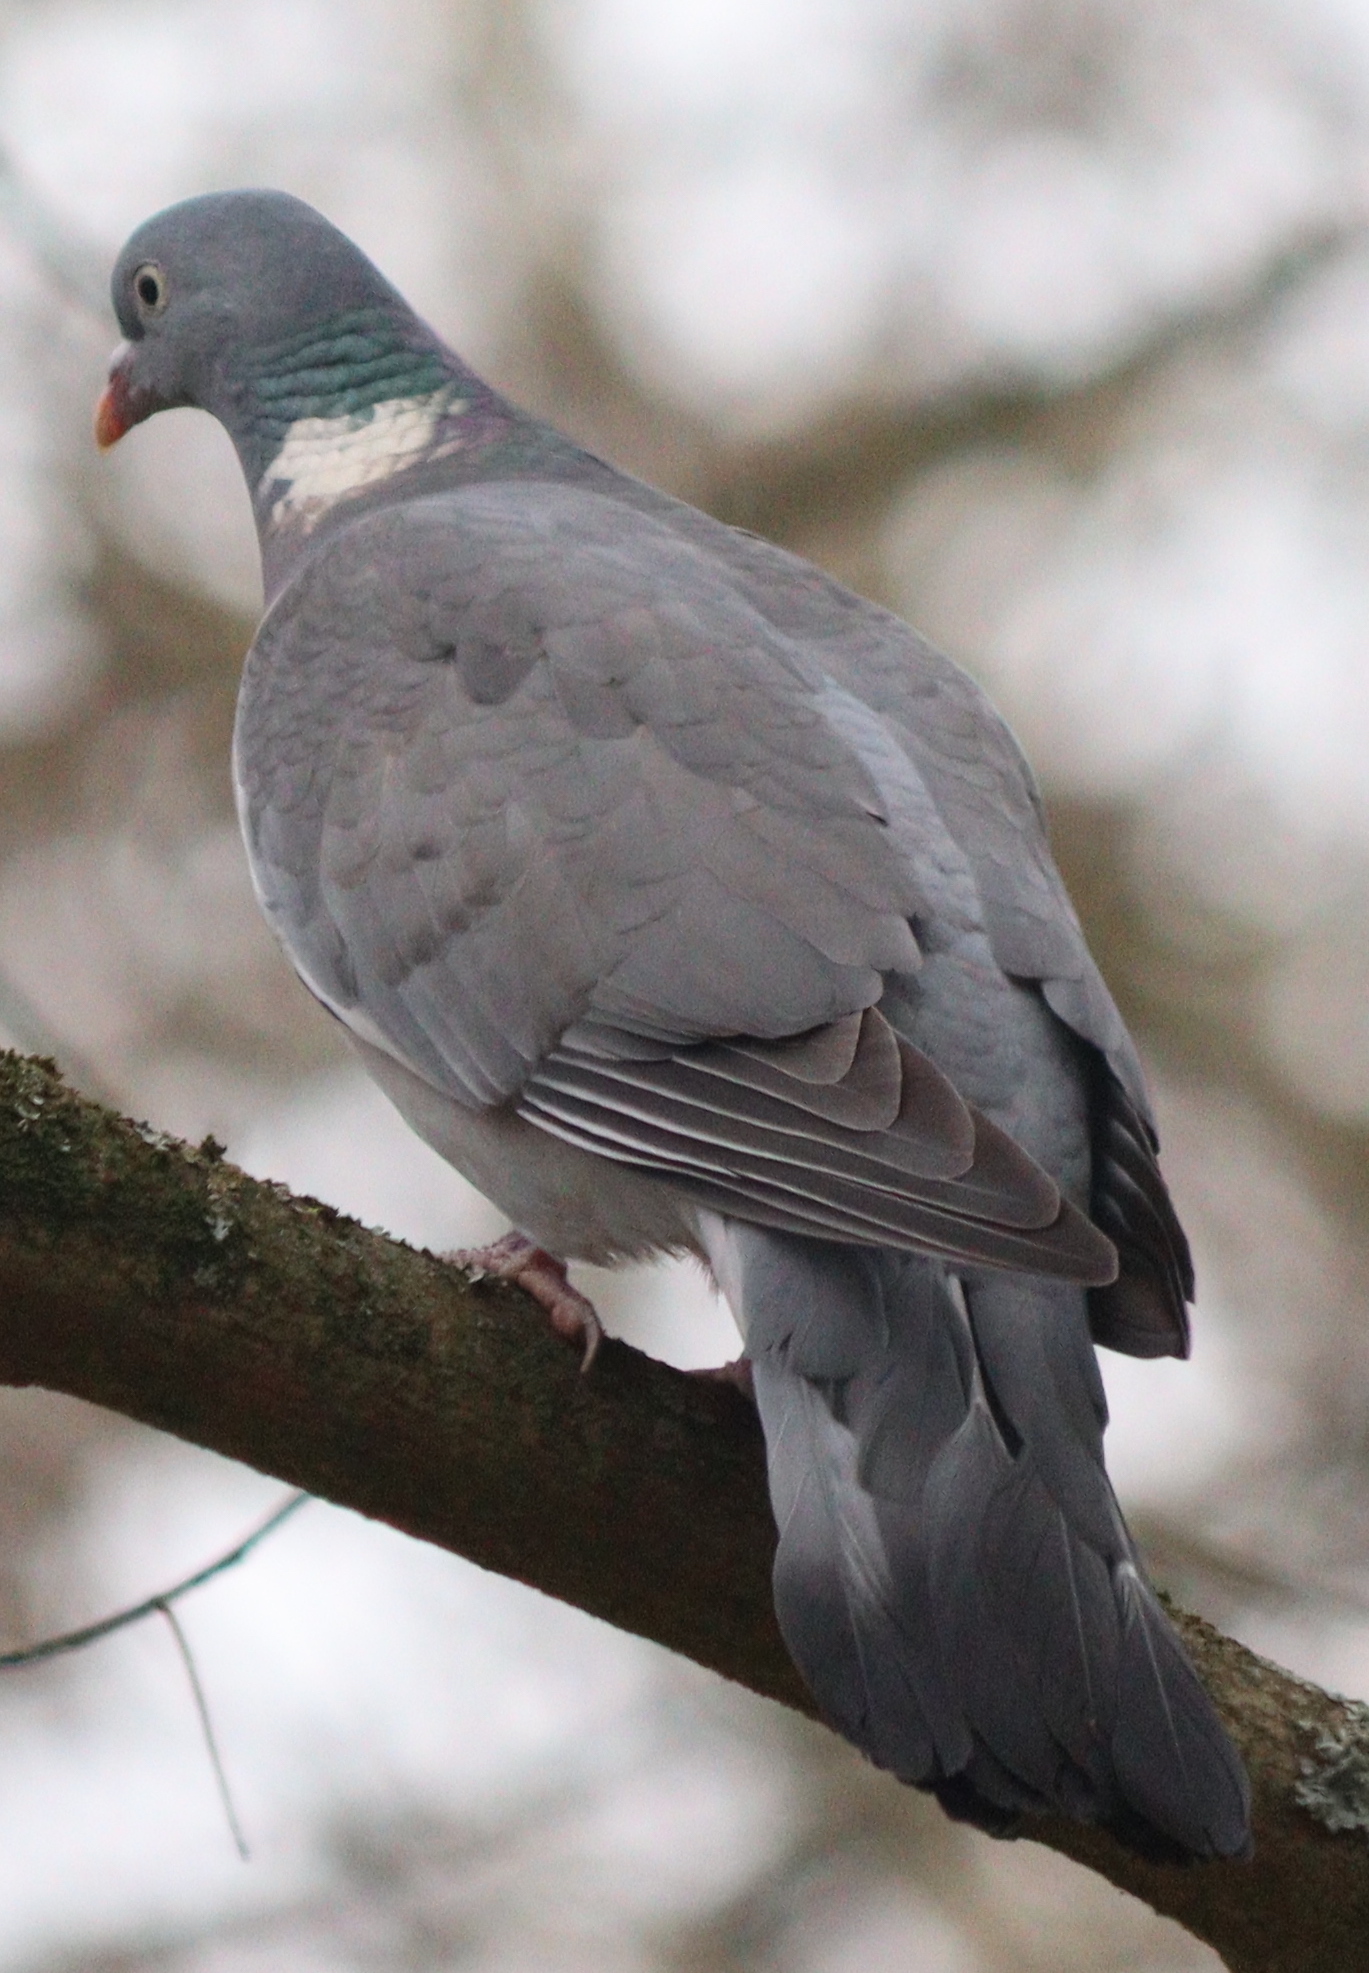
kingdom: Animalia
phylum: Chordata
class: Aves
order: Columbiformes
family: Columbidae
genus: Columba
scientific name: Columba palumbus
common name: Common wood pigeon
